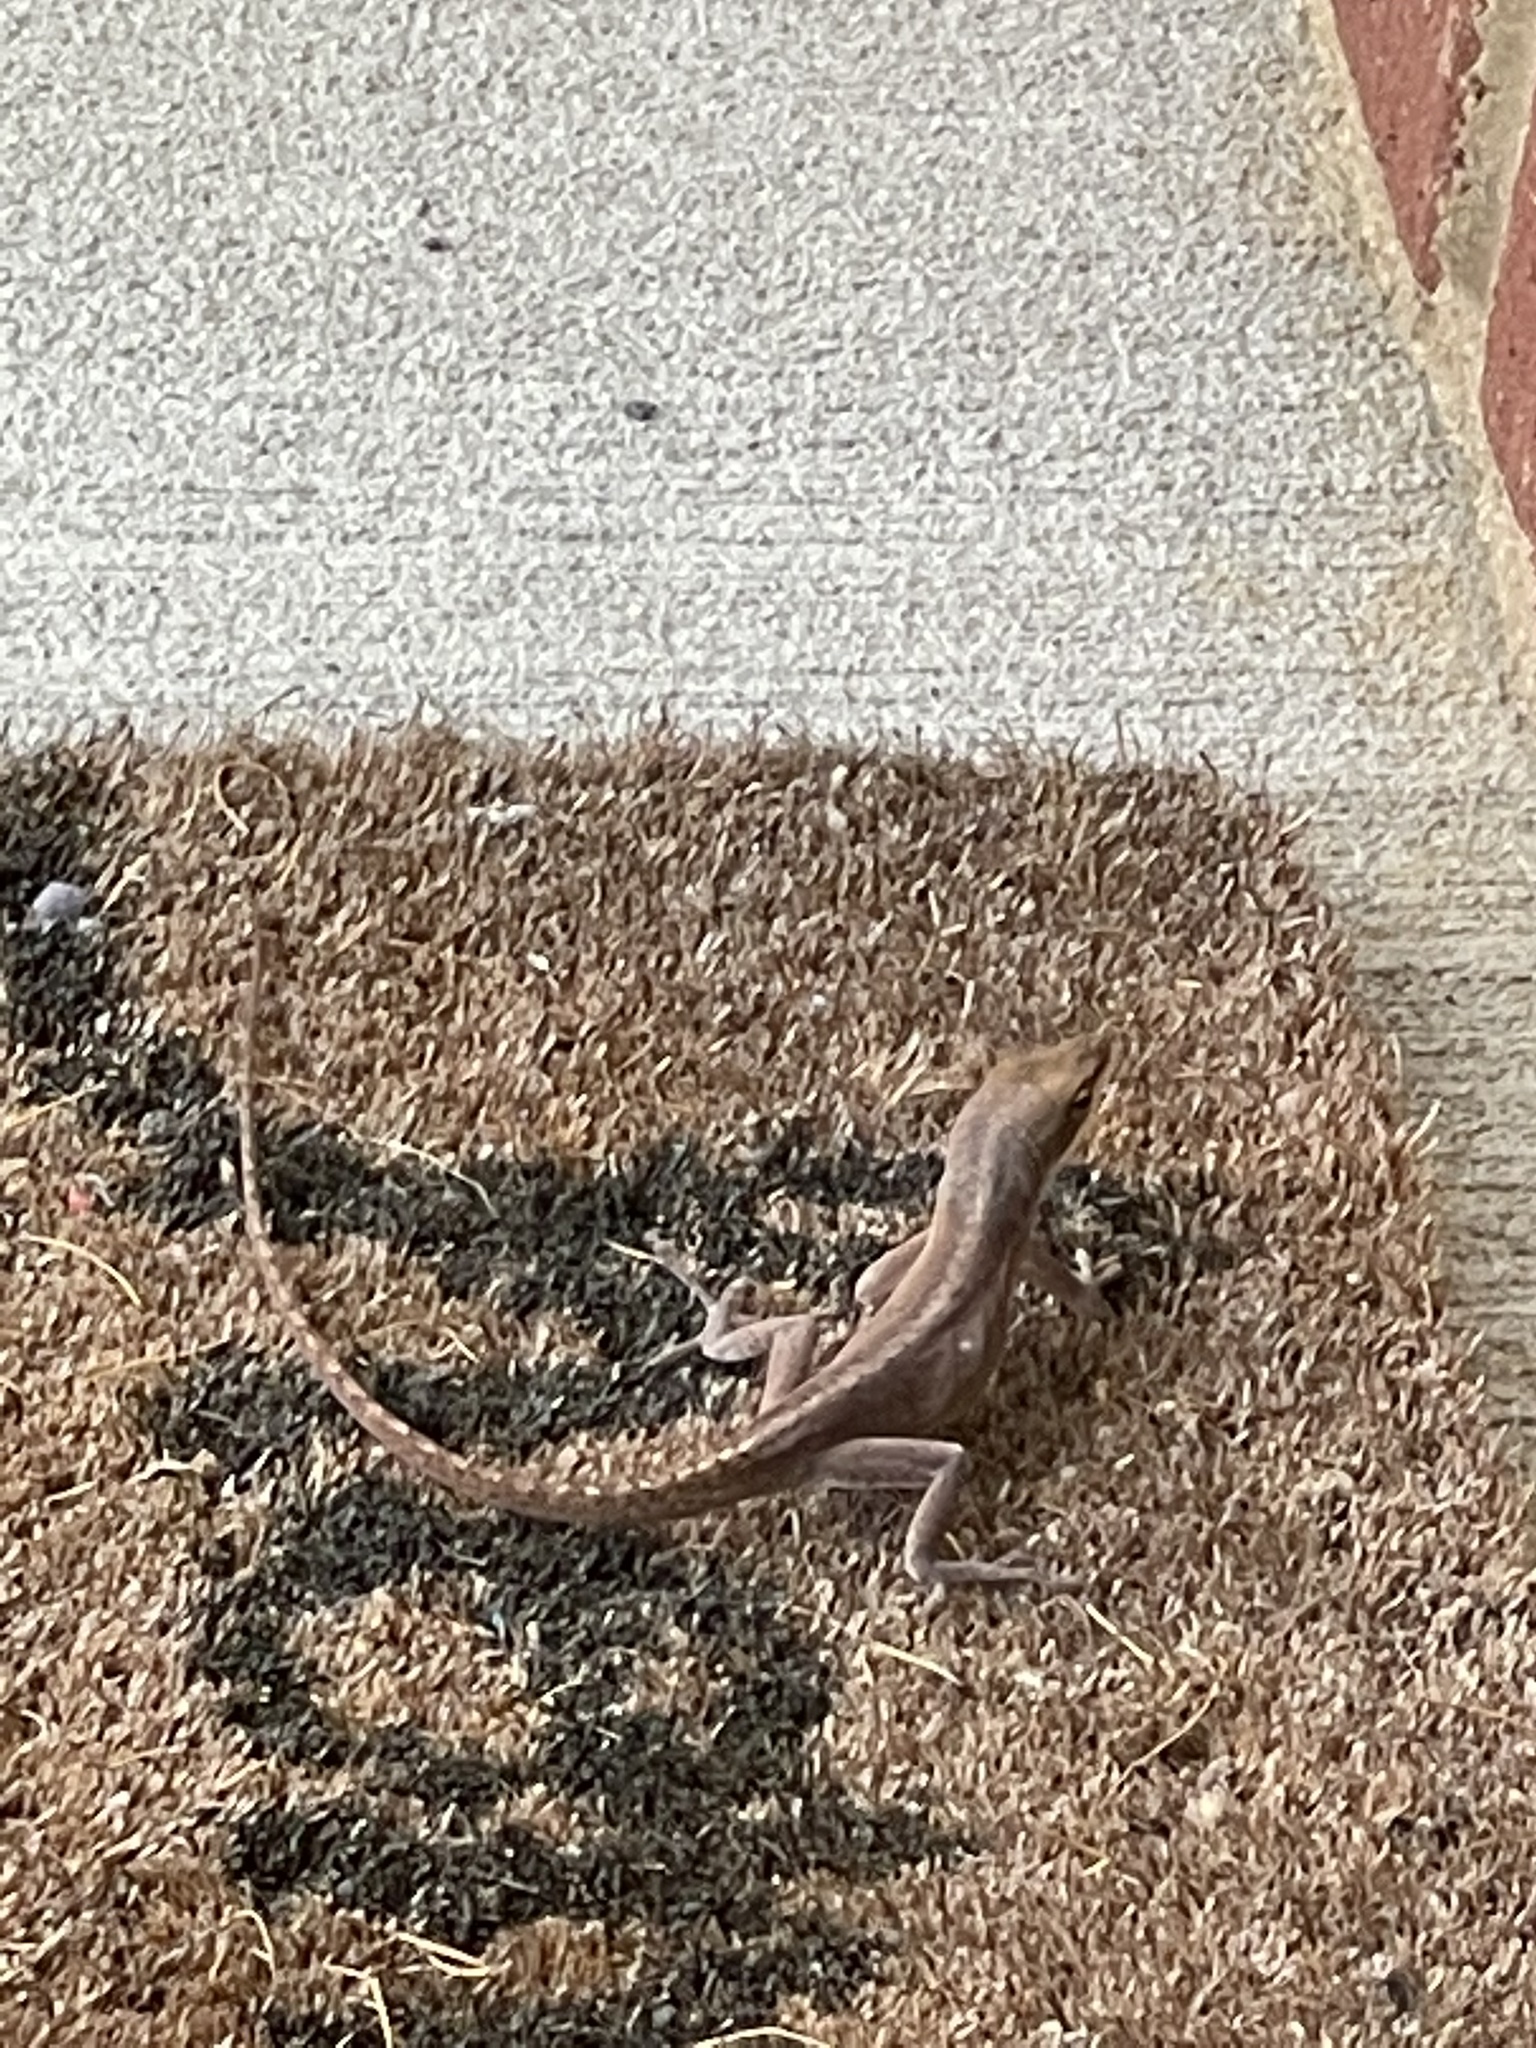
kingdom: Animalia
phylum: Chordata
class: Squamata
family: Dactyloidae
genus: Anolis
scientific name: Anolis carolinensis
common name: Green anole
